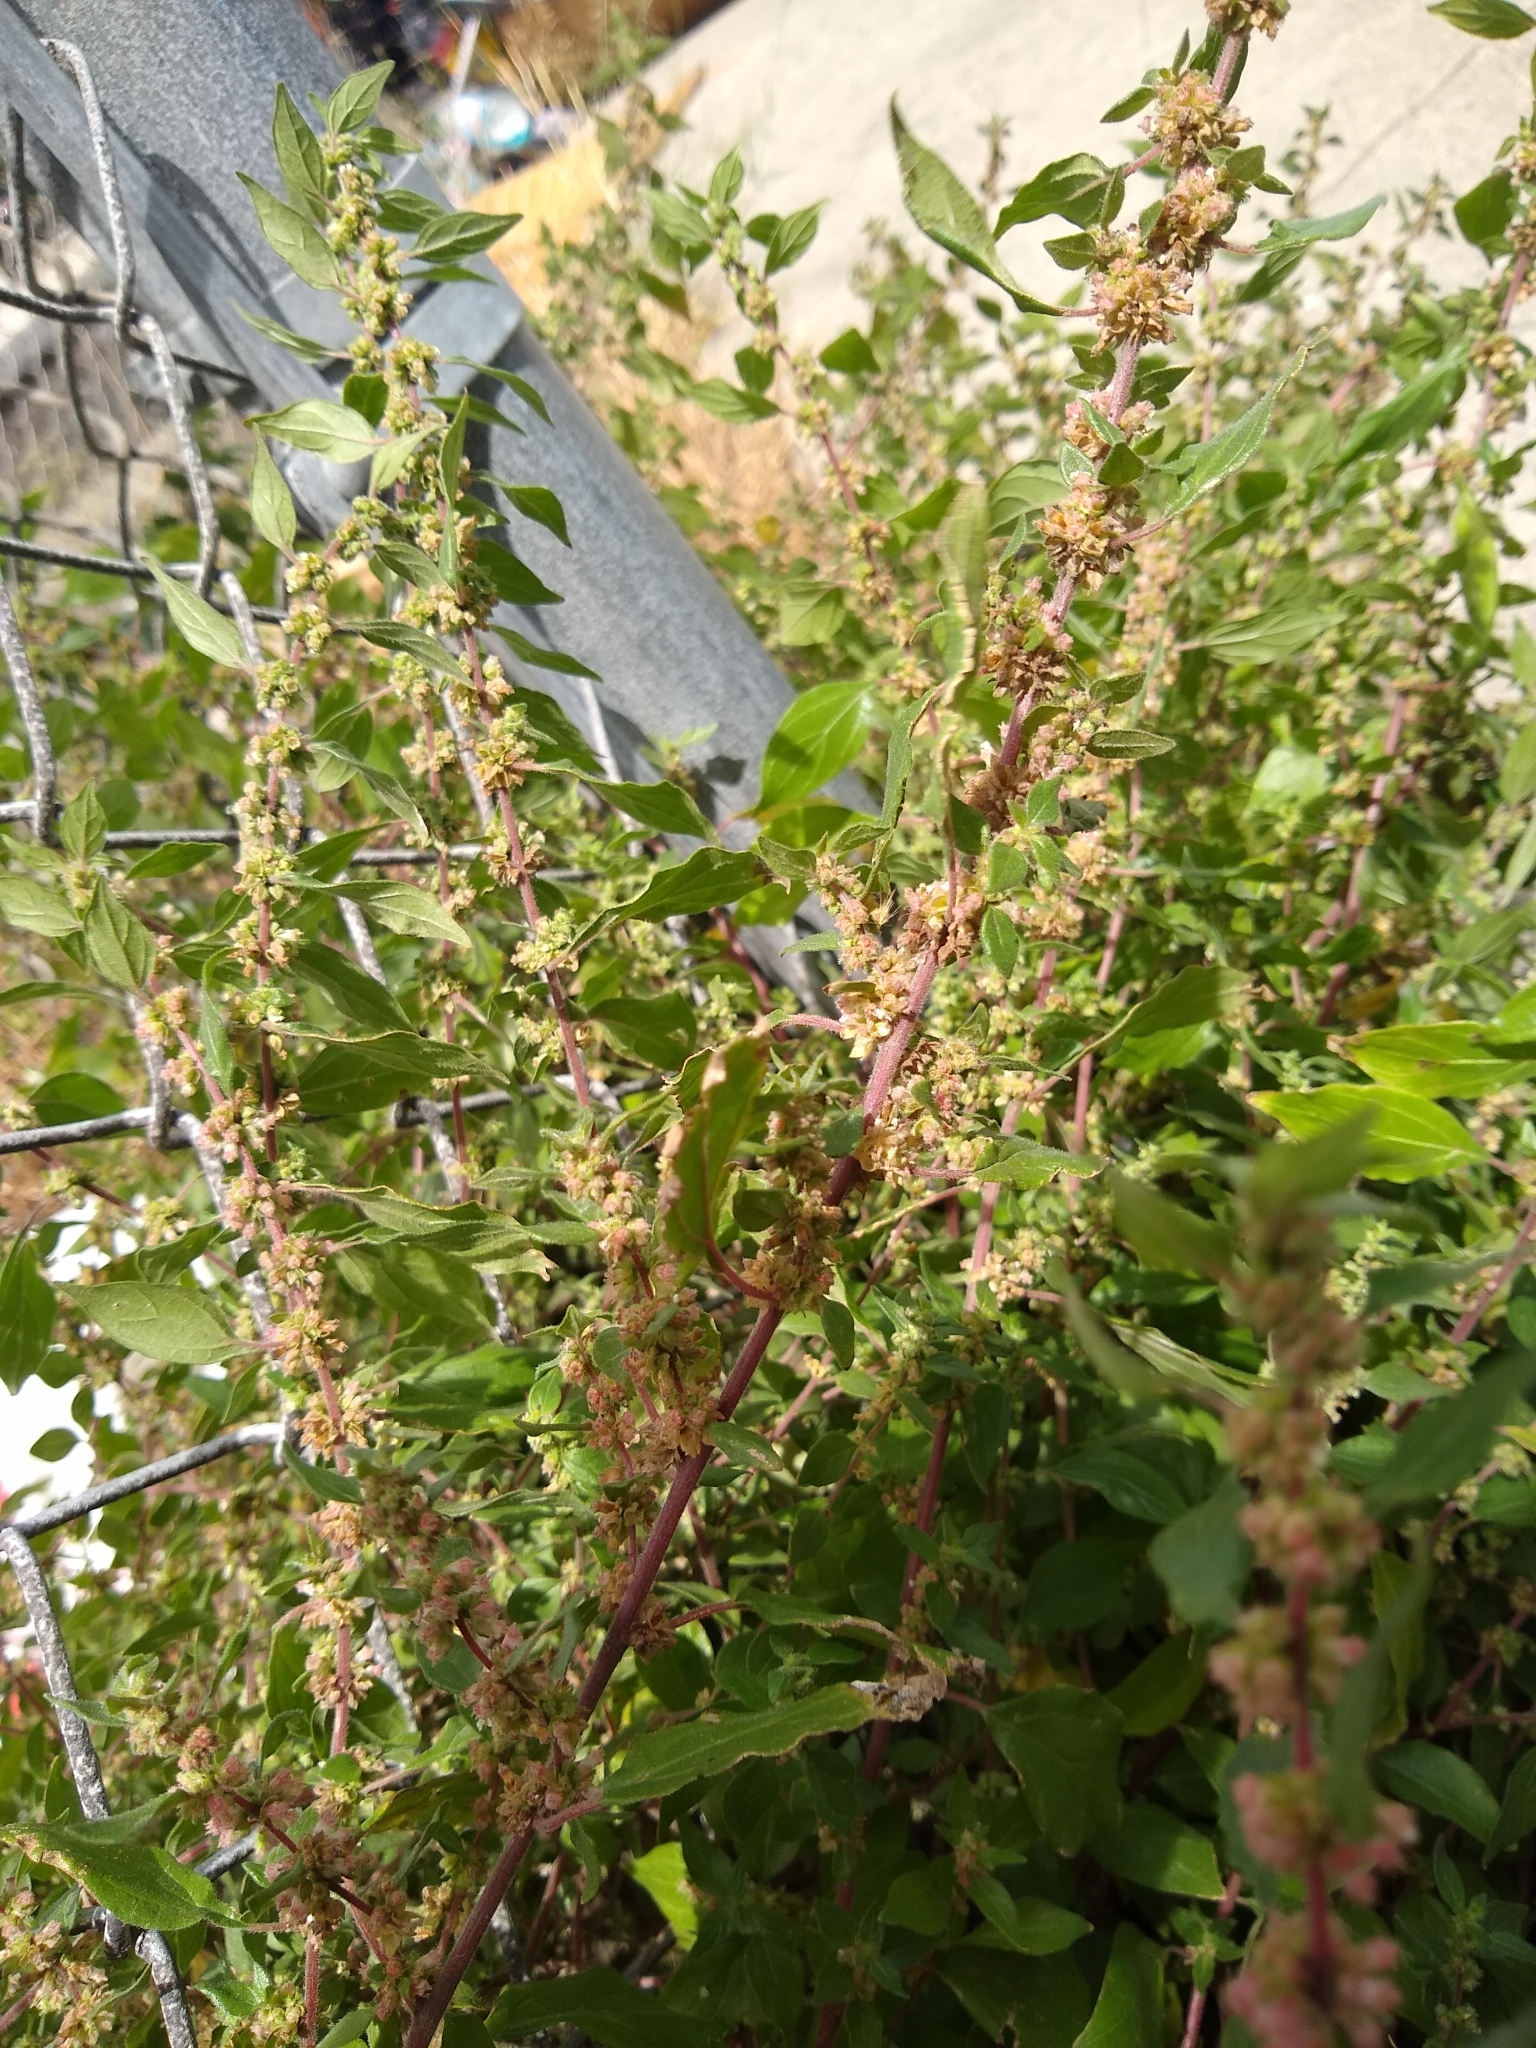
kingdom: Plantae
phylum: Tracheophyta
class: Magnoliopsida
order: Rosales
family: Urticaceae
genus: Parietaria
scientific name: Parietaria judaica
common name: Pellitory-of-the-wall
